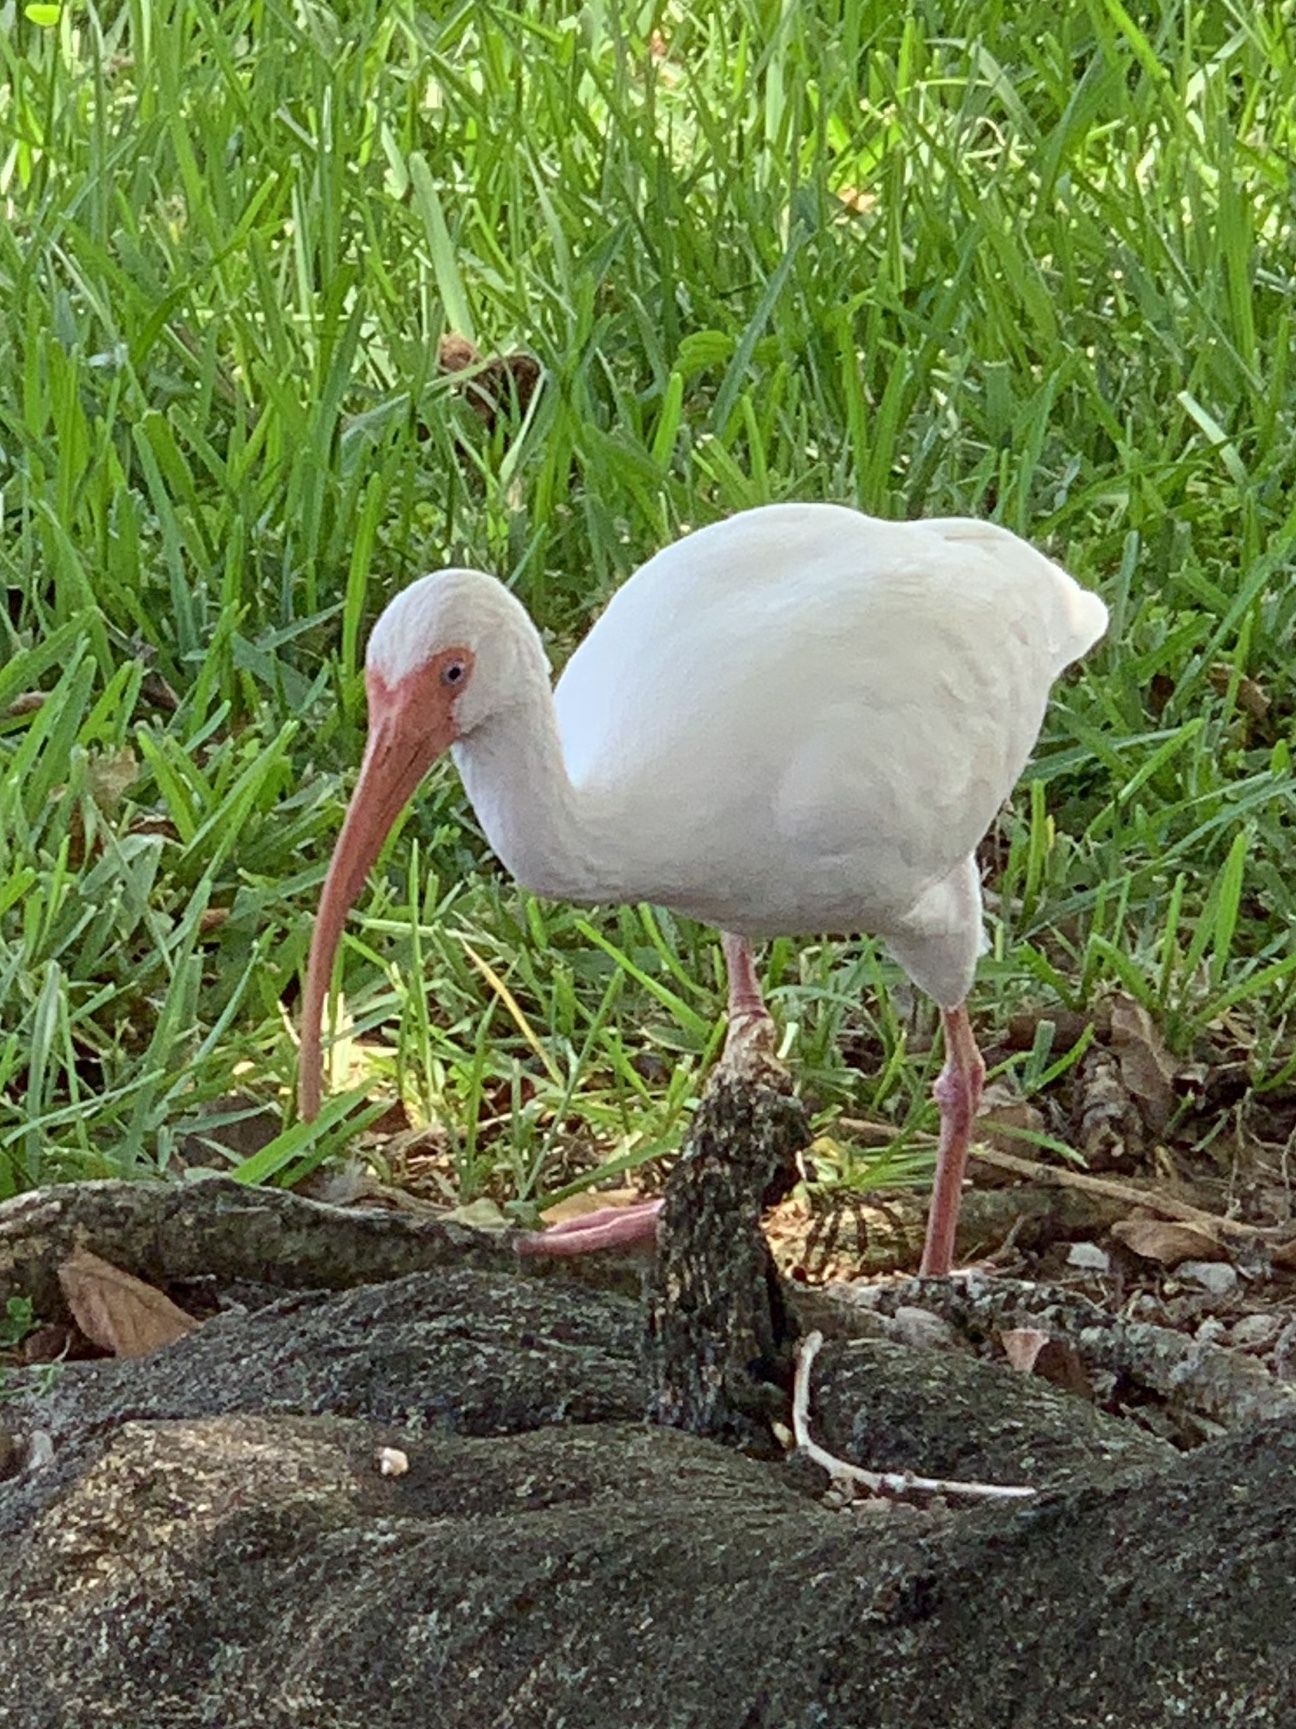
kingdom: Animalia
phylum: Chordata
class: Aves
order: Pelecaniformes
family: Threskiornithidae
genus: Eudocimus
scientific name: Eudocimus albus
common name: White ibis
